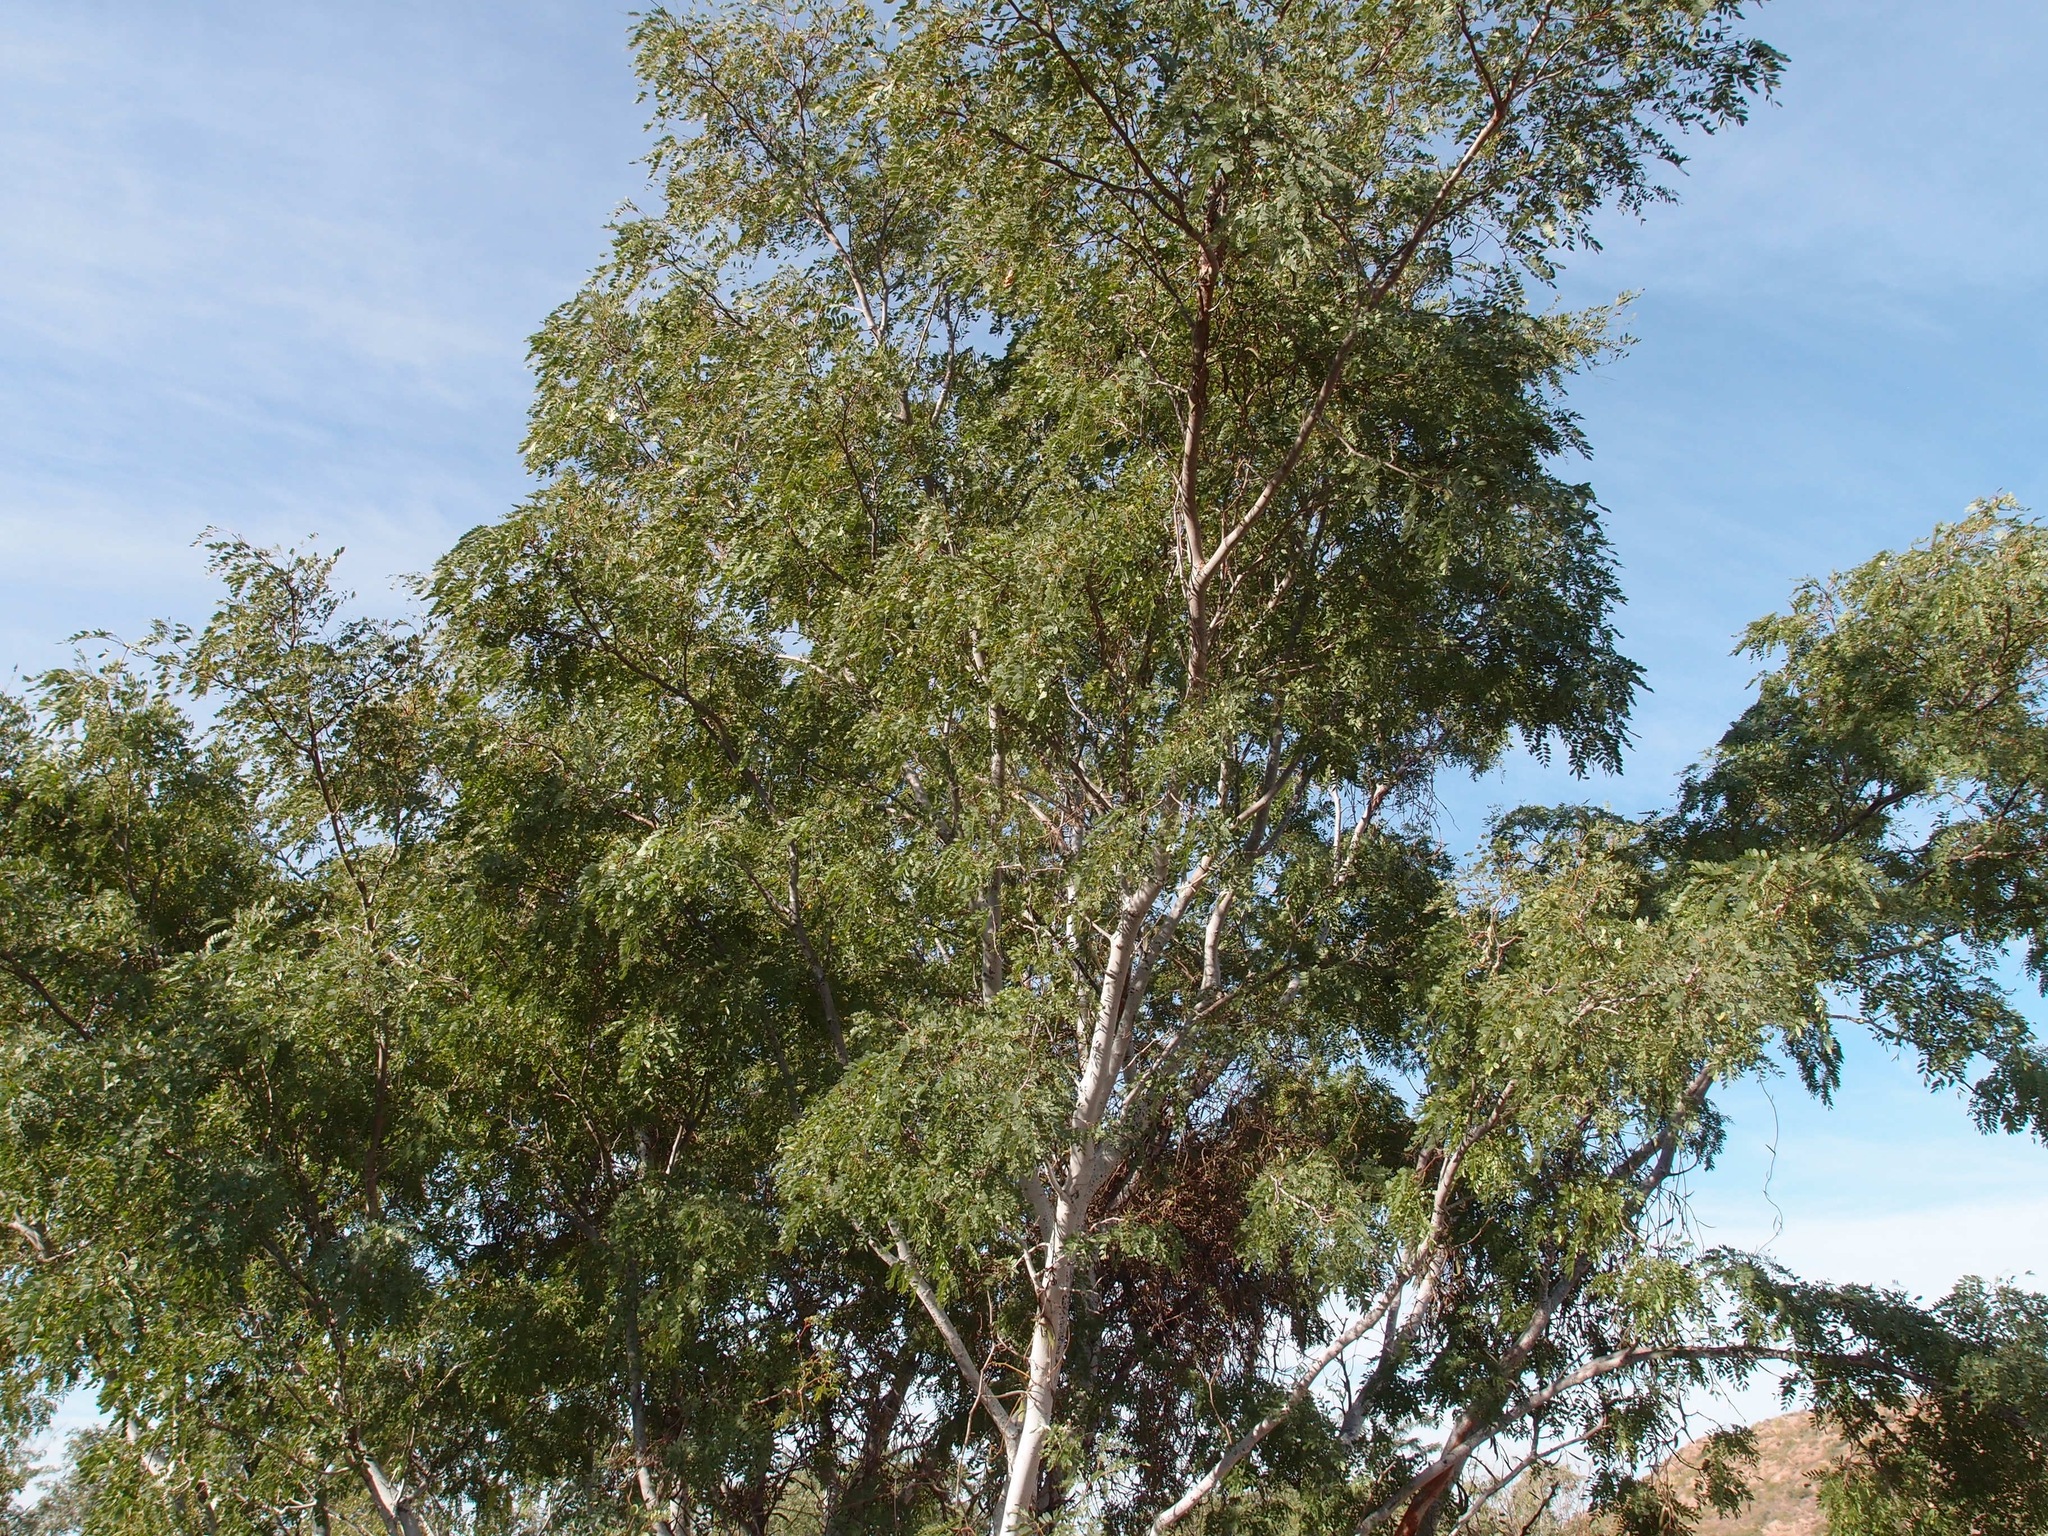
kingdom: Plantae
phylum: Tracheophyta
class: Magnoliopsida
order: Fabales
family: Fabaceae
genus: Lysiloma
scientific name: Lysiloma candidum
